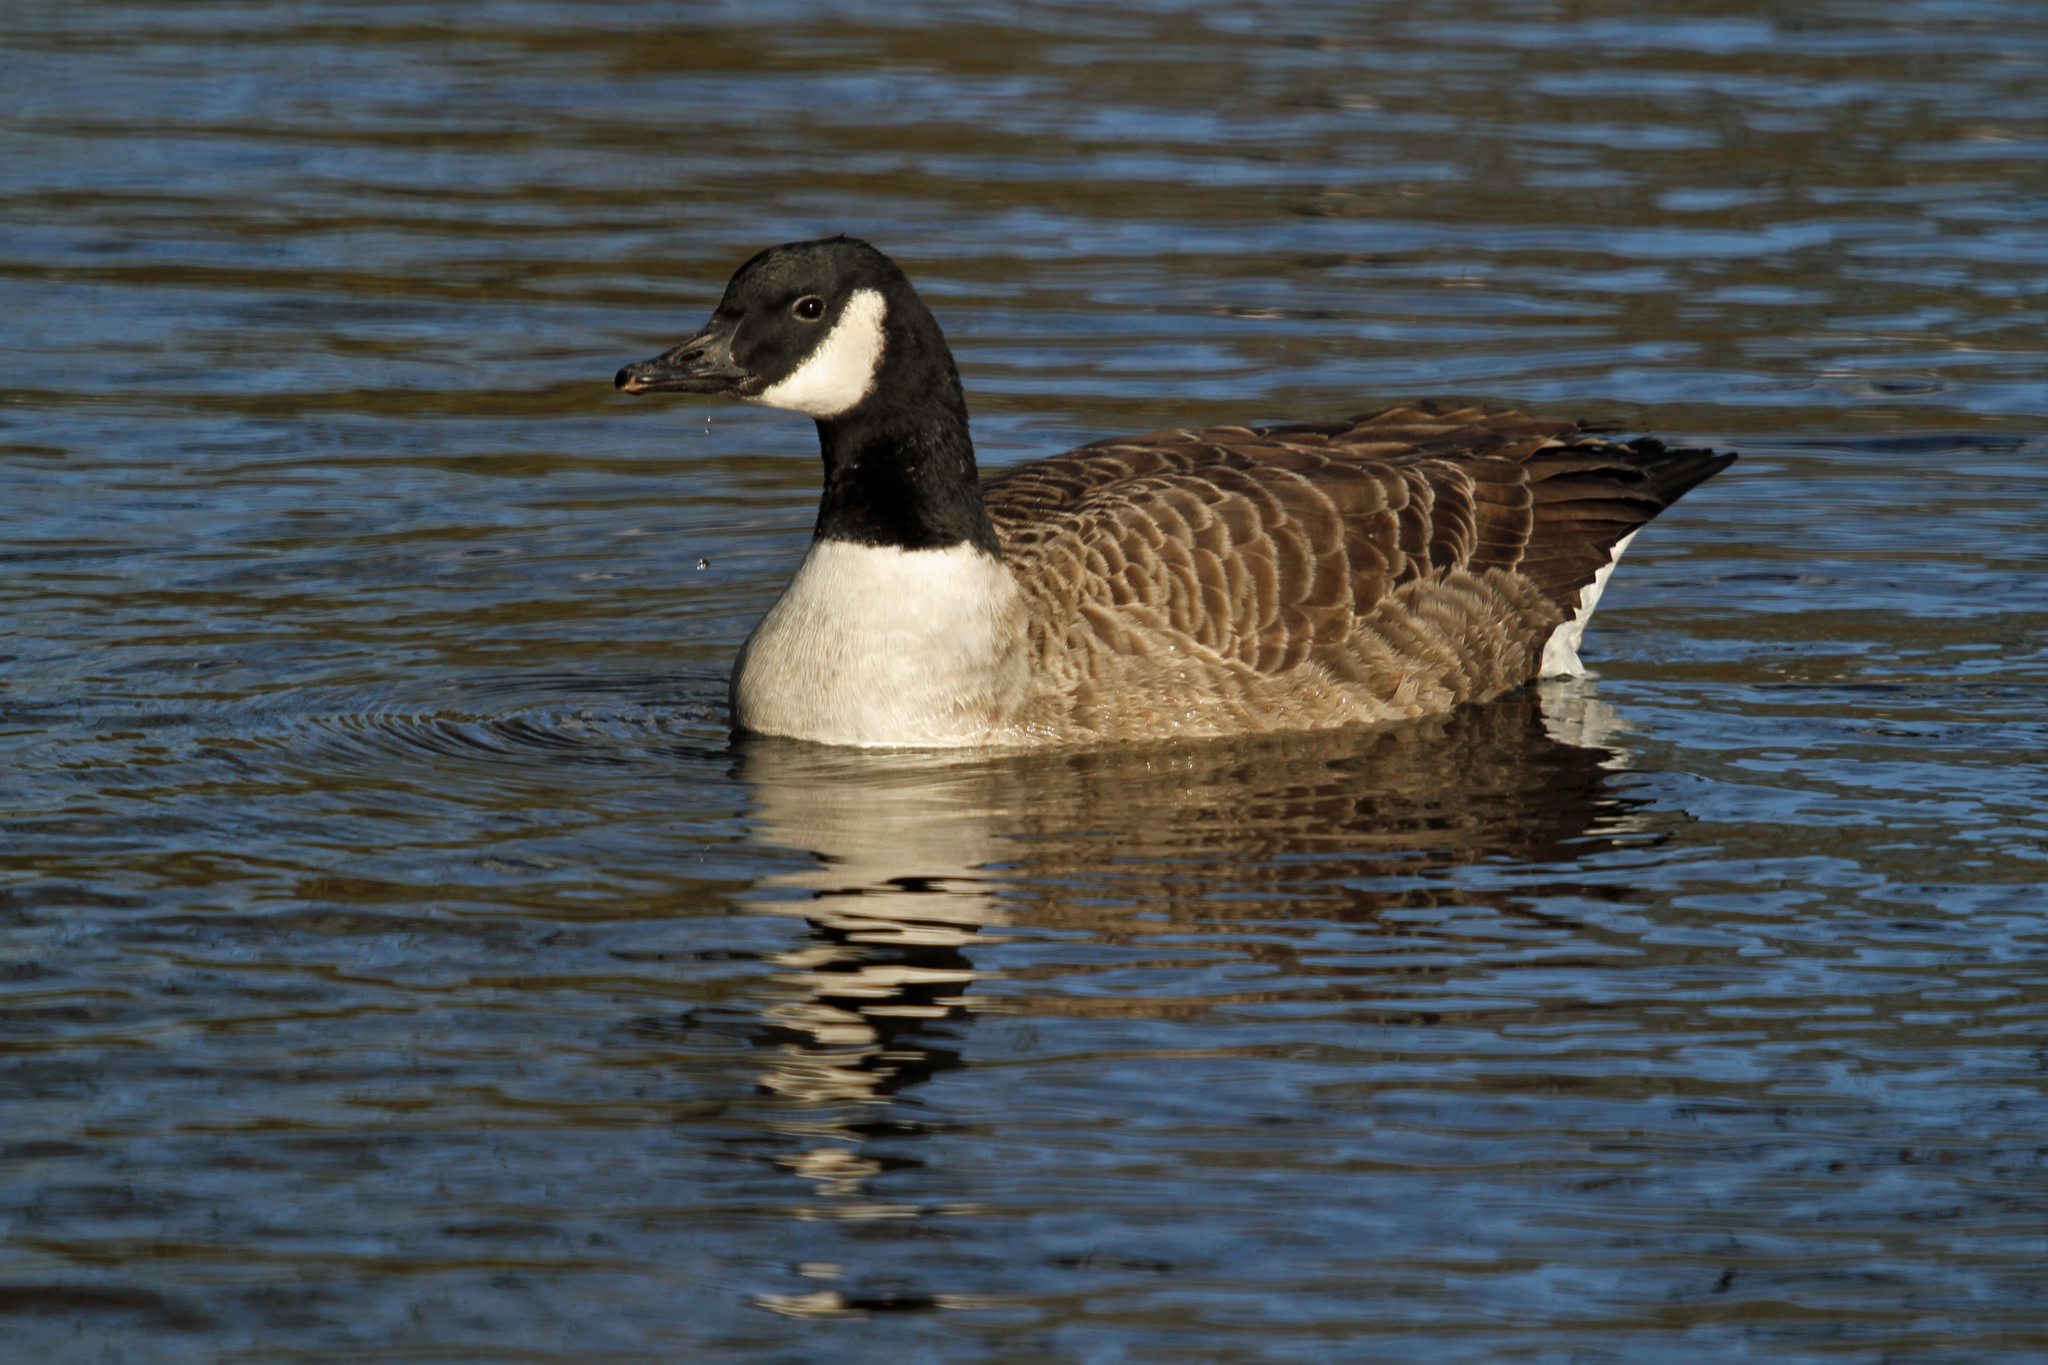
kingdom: Animalia
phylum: Chordata
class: Aves
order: Anseriformes
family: Anatidae
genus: Branta
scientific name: Branta canadensis
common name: Canada goose
